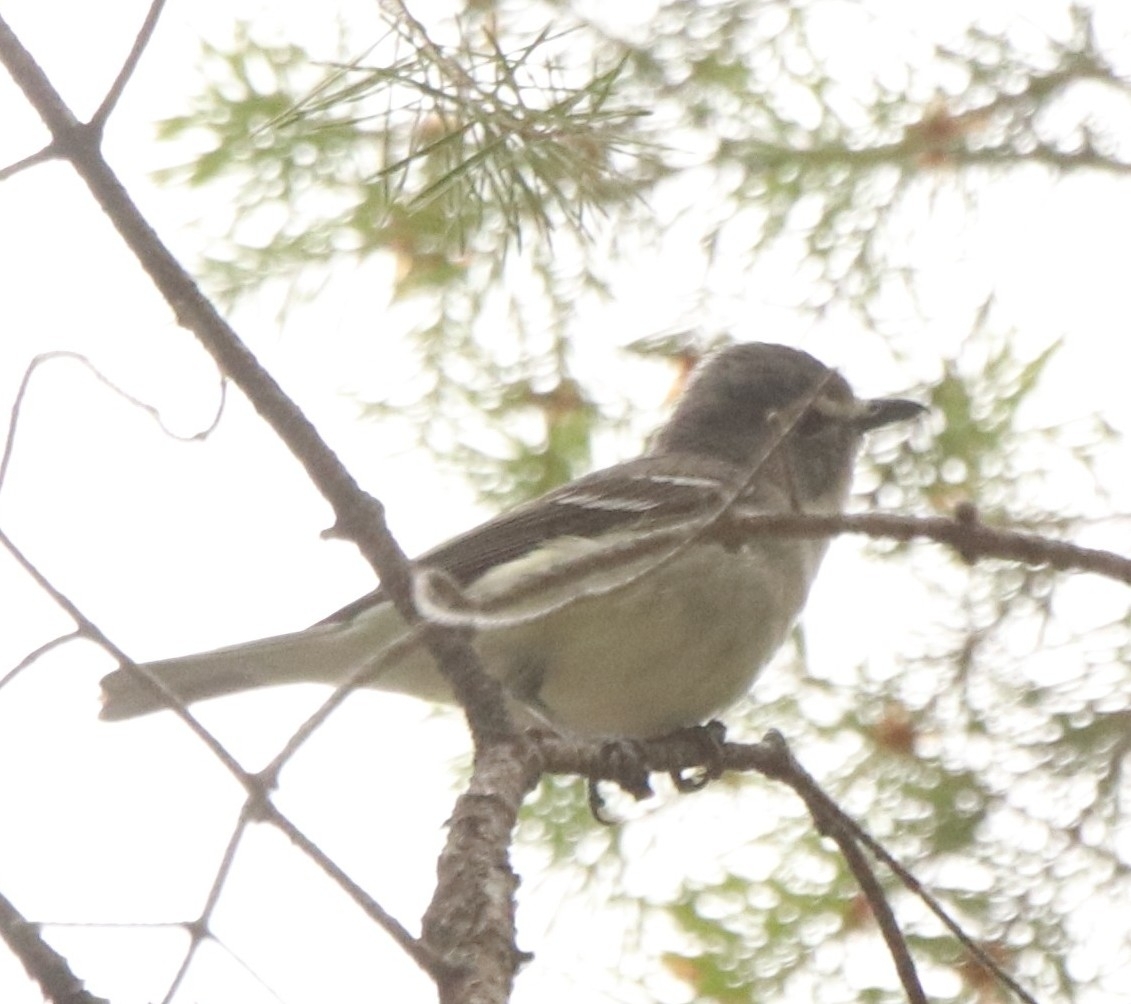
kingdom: Animalia
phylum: Chordata
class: Aves
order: Passeriformes
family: Vireonidae
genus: Vireo
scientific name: Vireo plumbeus
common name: Plumbeous vireo
